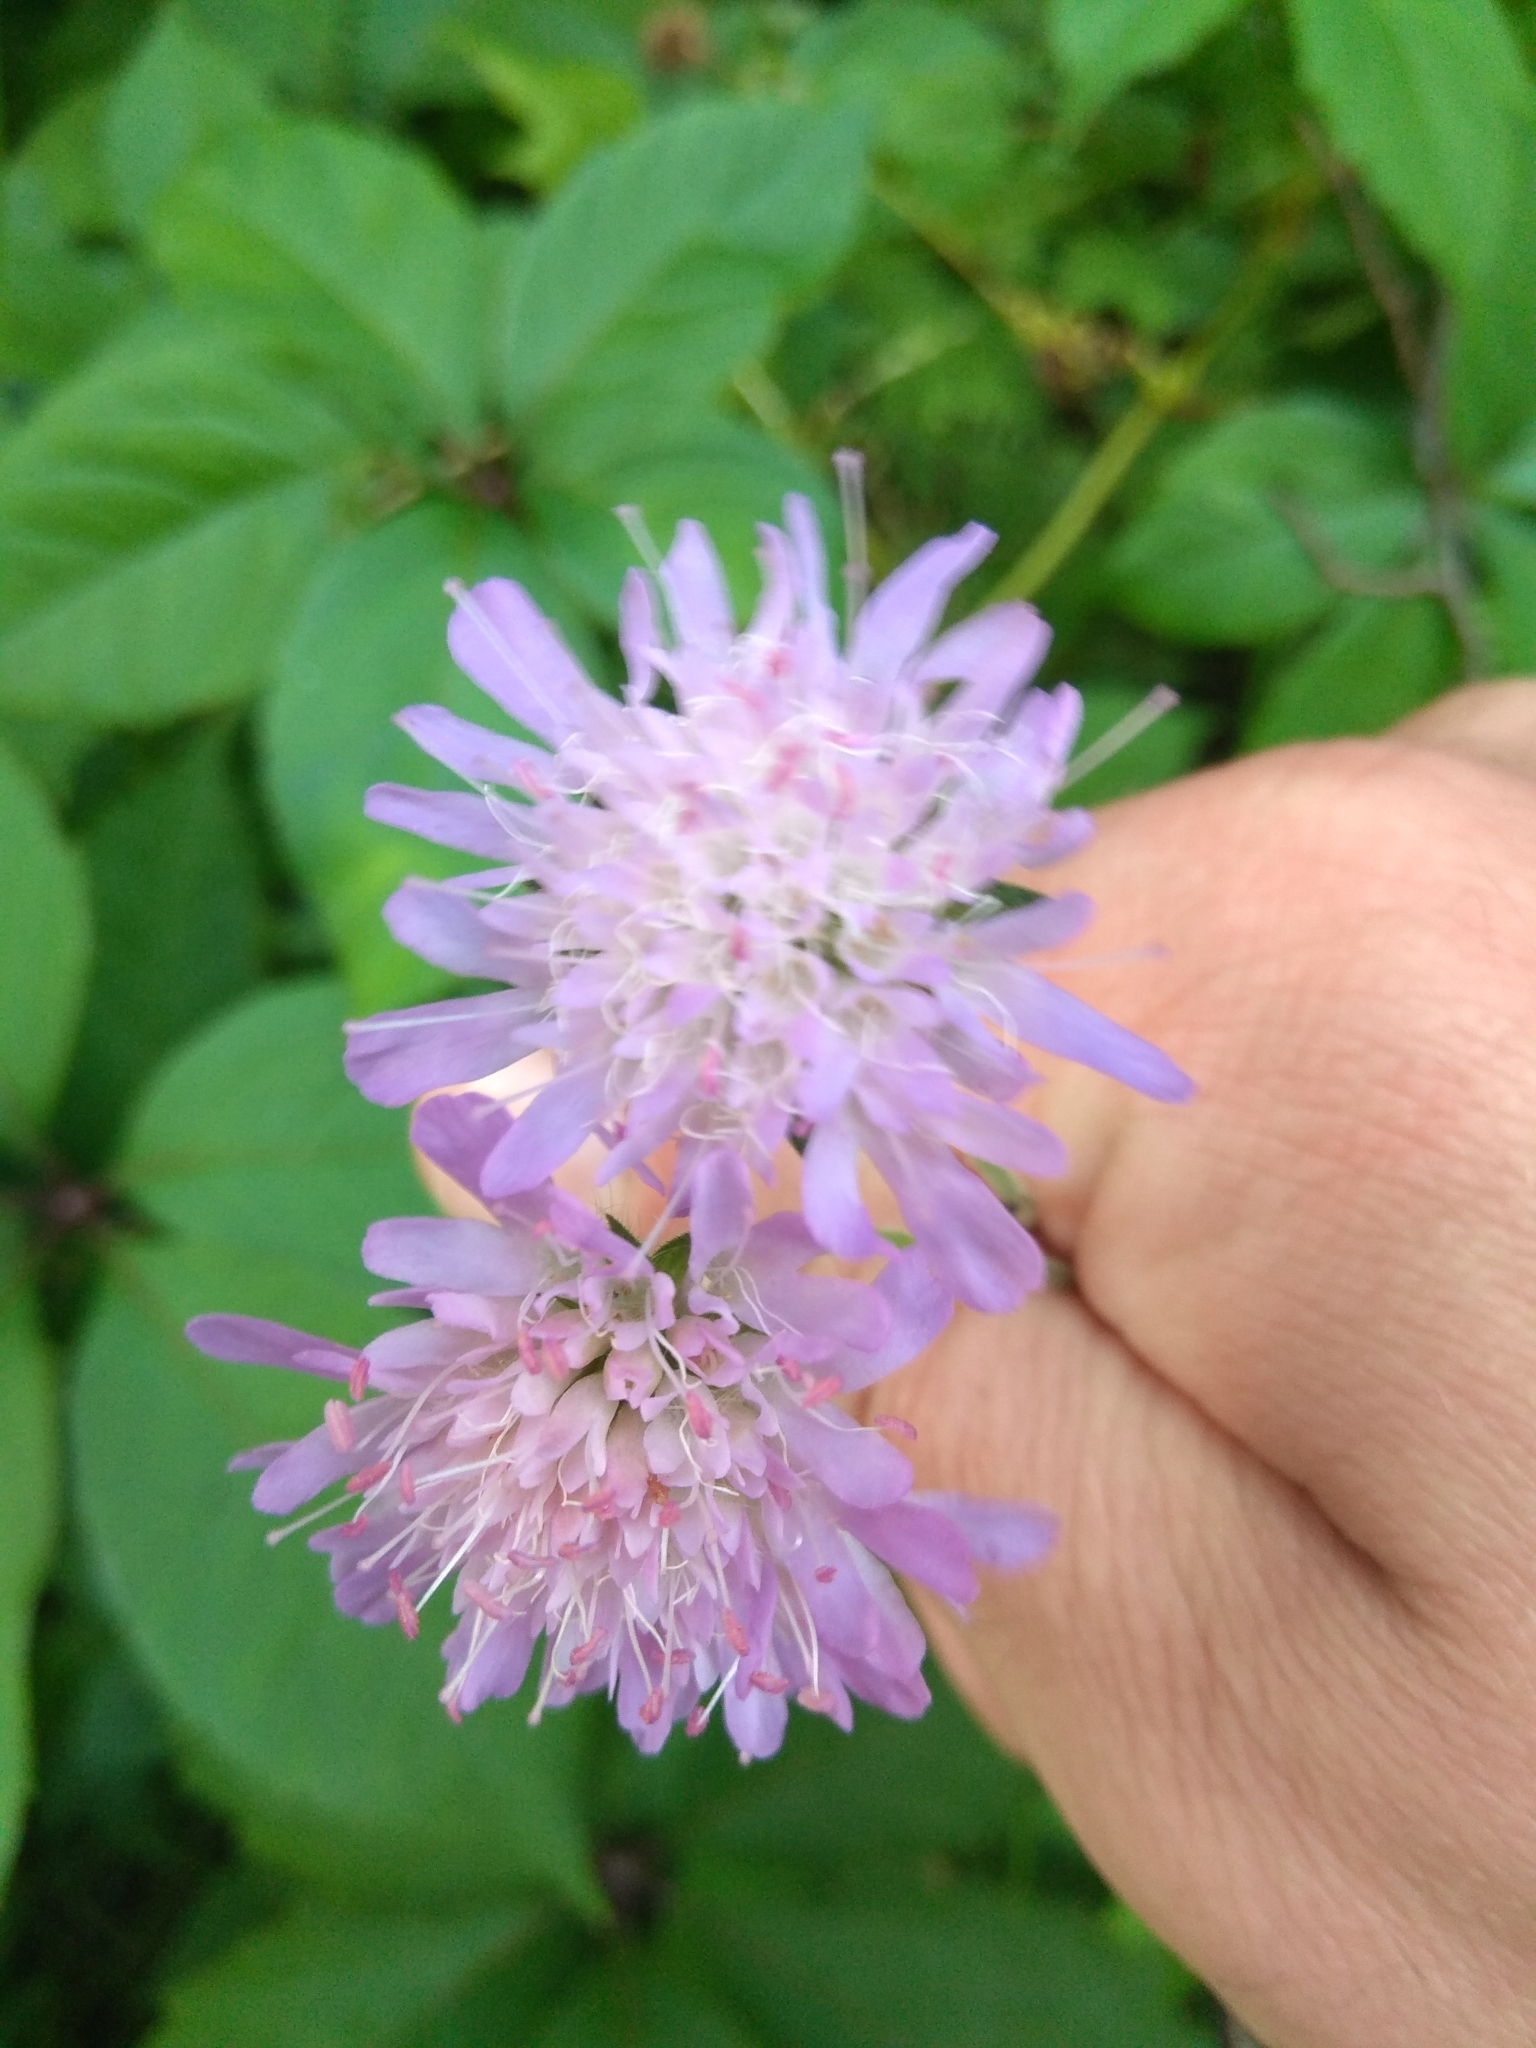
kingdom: Plantae
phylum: Tracheophyta
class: Magnoliopsida
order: Dipsacales
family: Caprifoliaceae
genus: Knautia
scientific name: Knautia arvensis
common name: Field scabiosa
